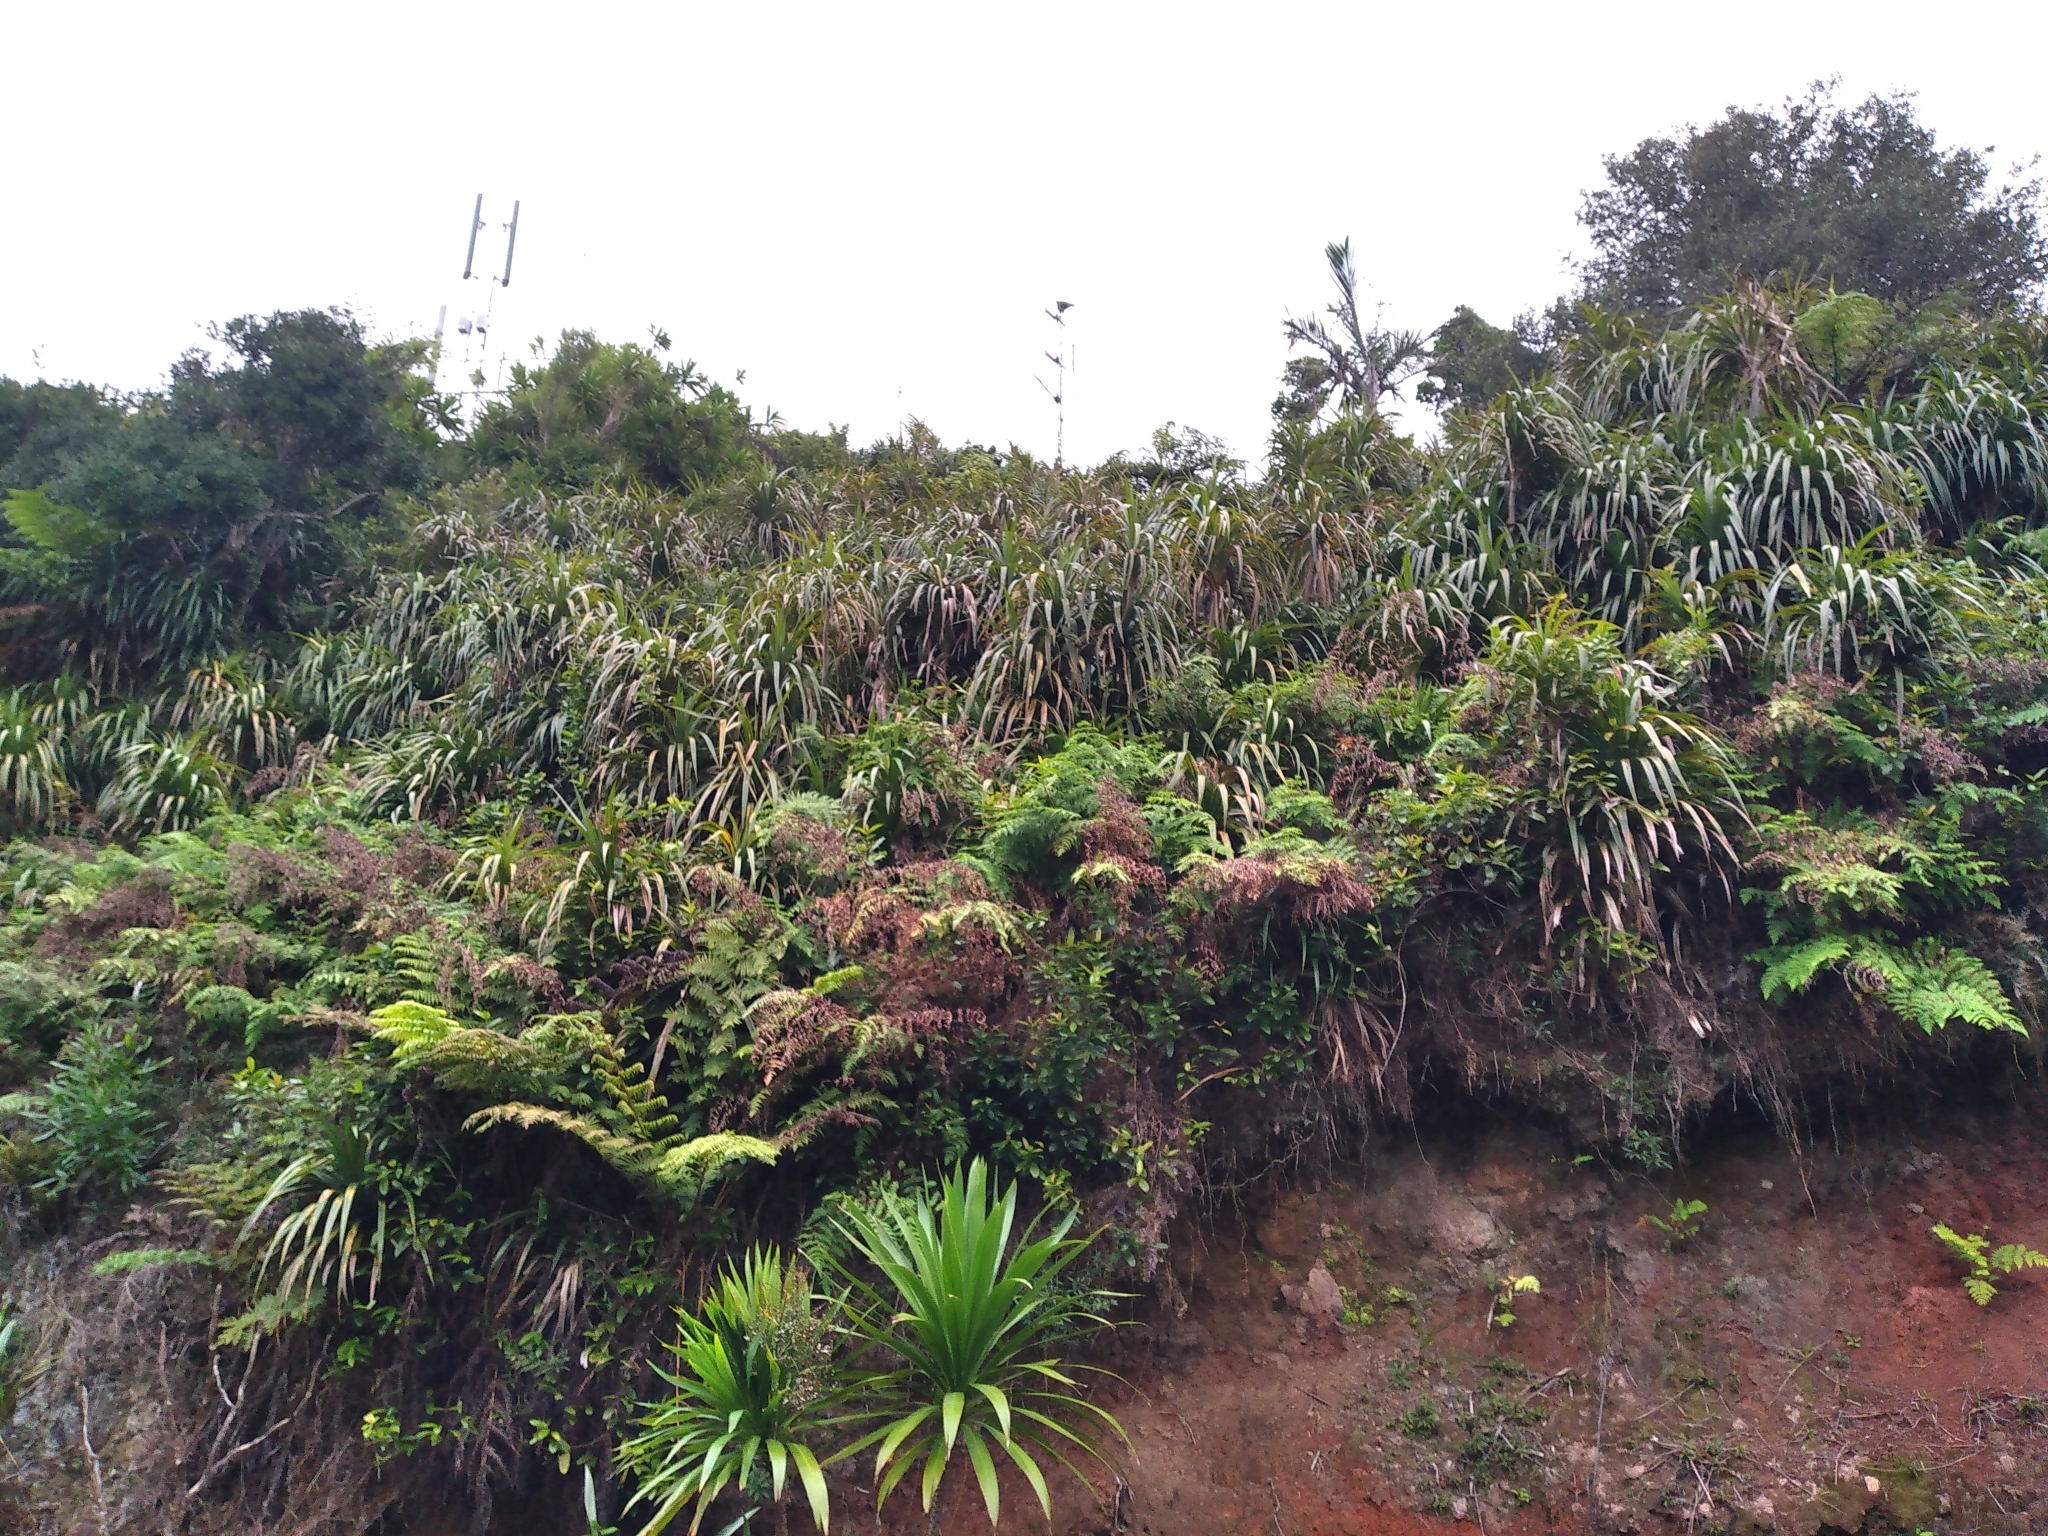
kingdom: Plantae
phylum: Tracheophyta
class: Liliopsida
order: Pandanales
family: Pandanaceae
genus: Freycinetia
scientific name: Freycinetia baueriana
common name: Mountain rush
